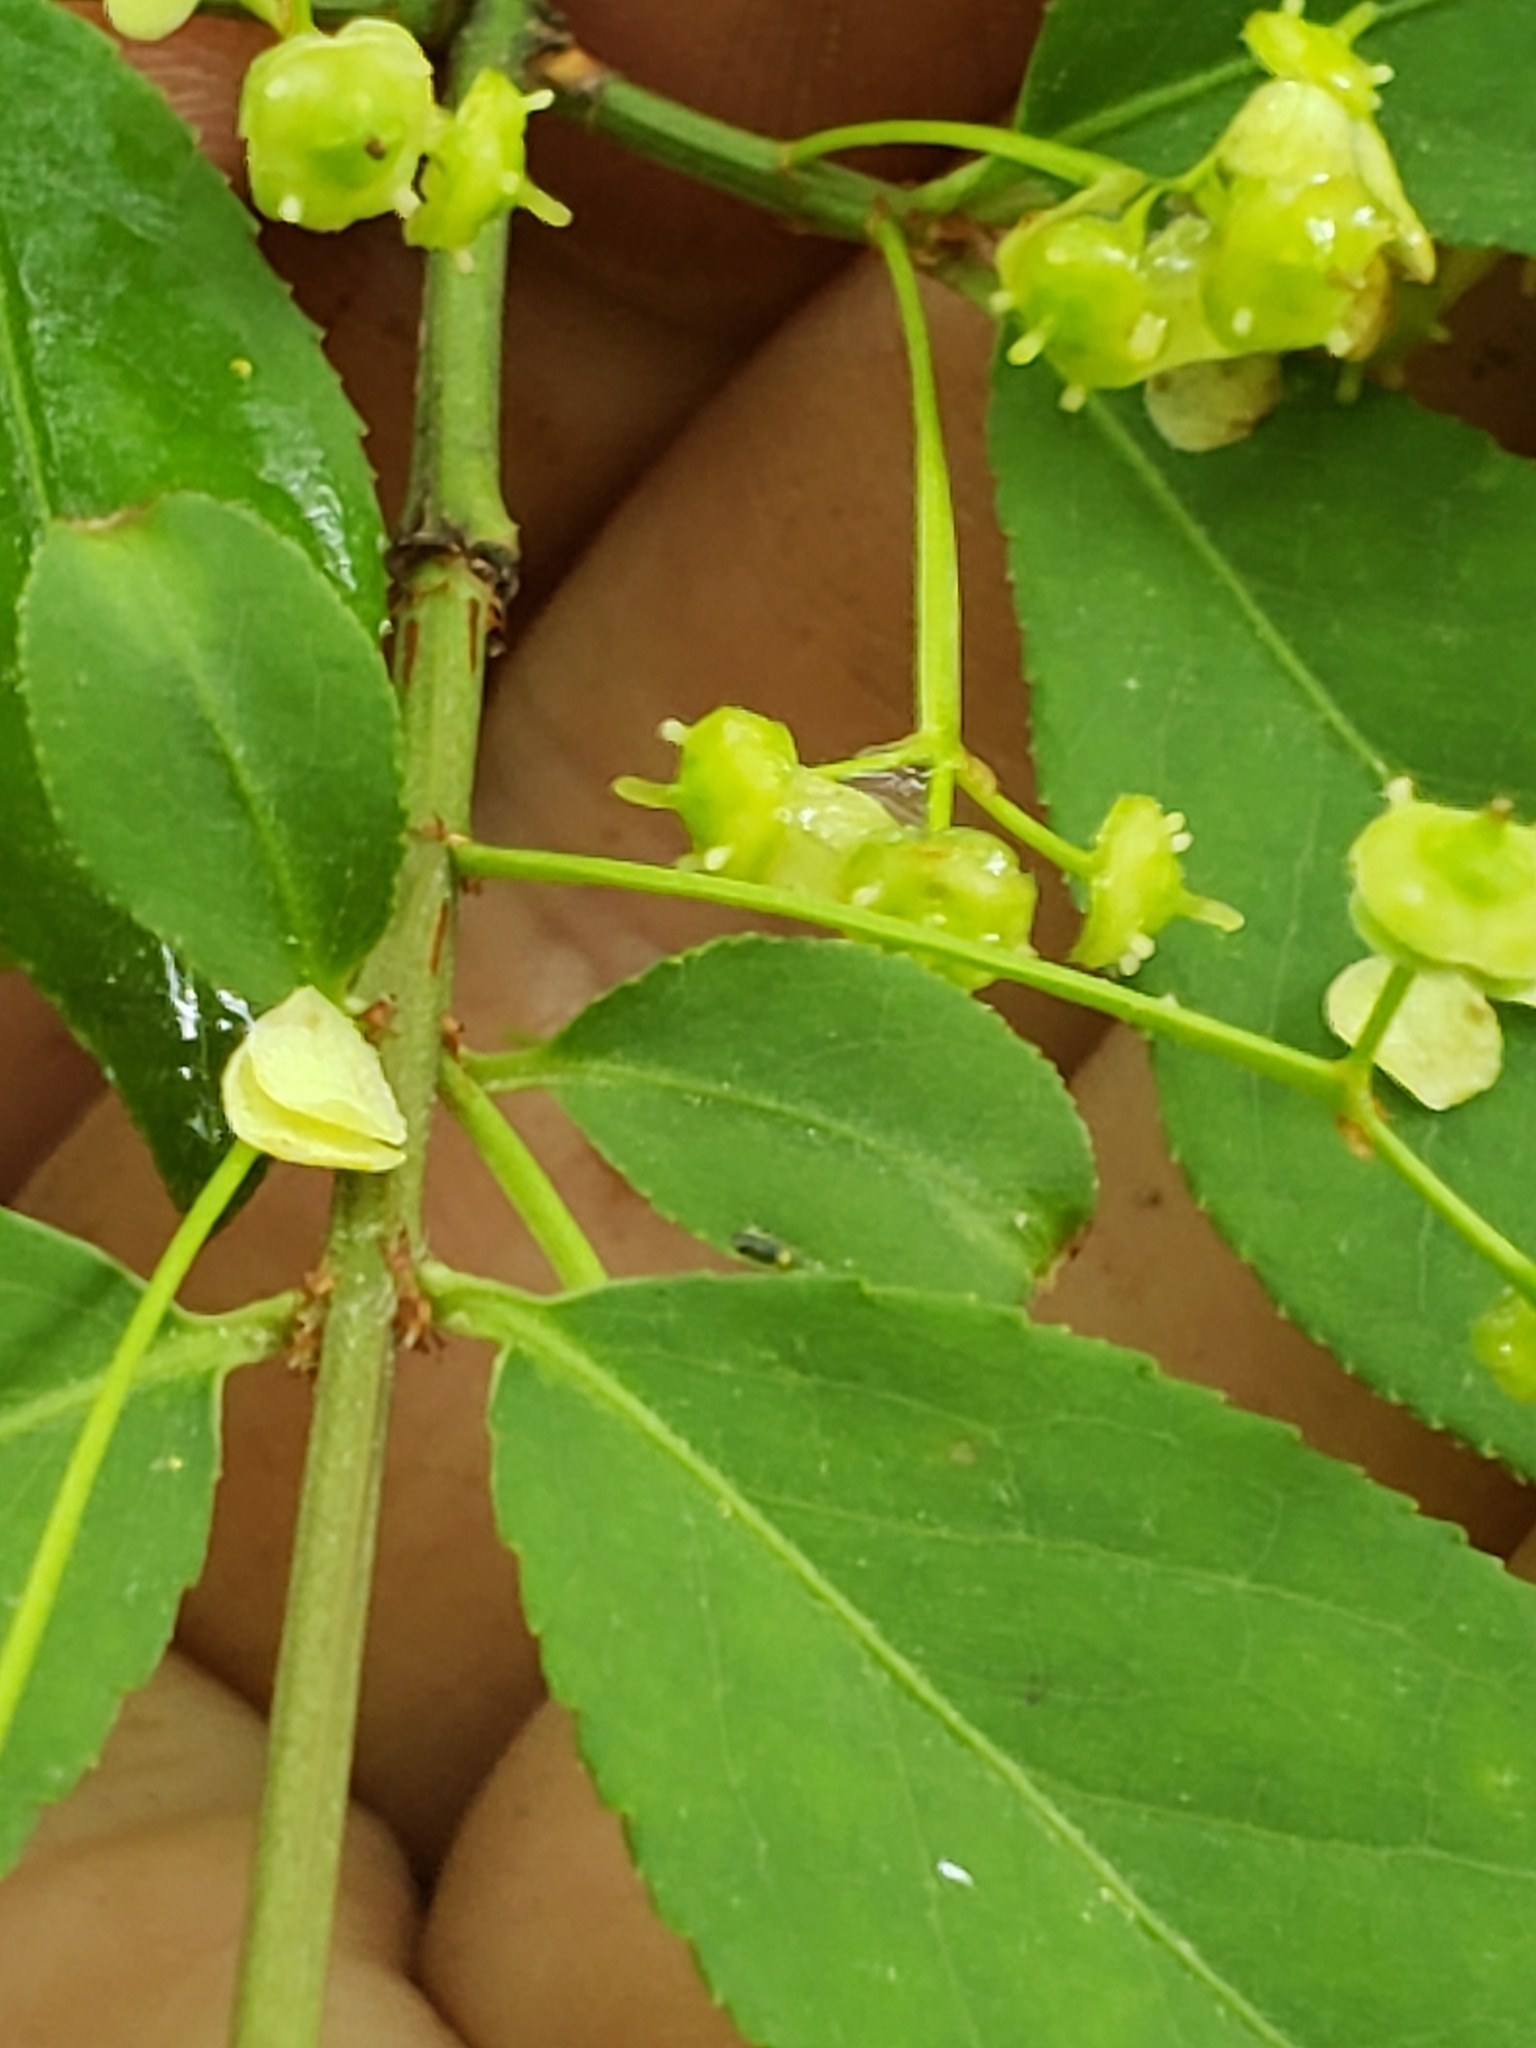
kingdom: Plantae
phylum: Tracheophyta
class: Magnoliopsida
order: Celastrales
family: Celastraceae
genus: Euonymus
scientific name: Euonymus alatus
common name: Winged euonymus
